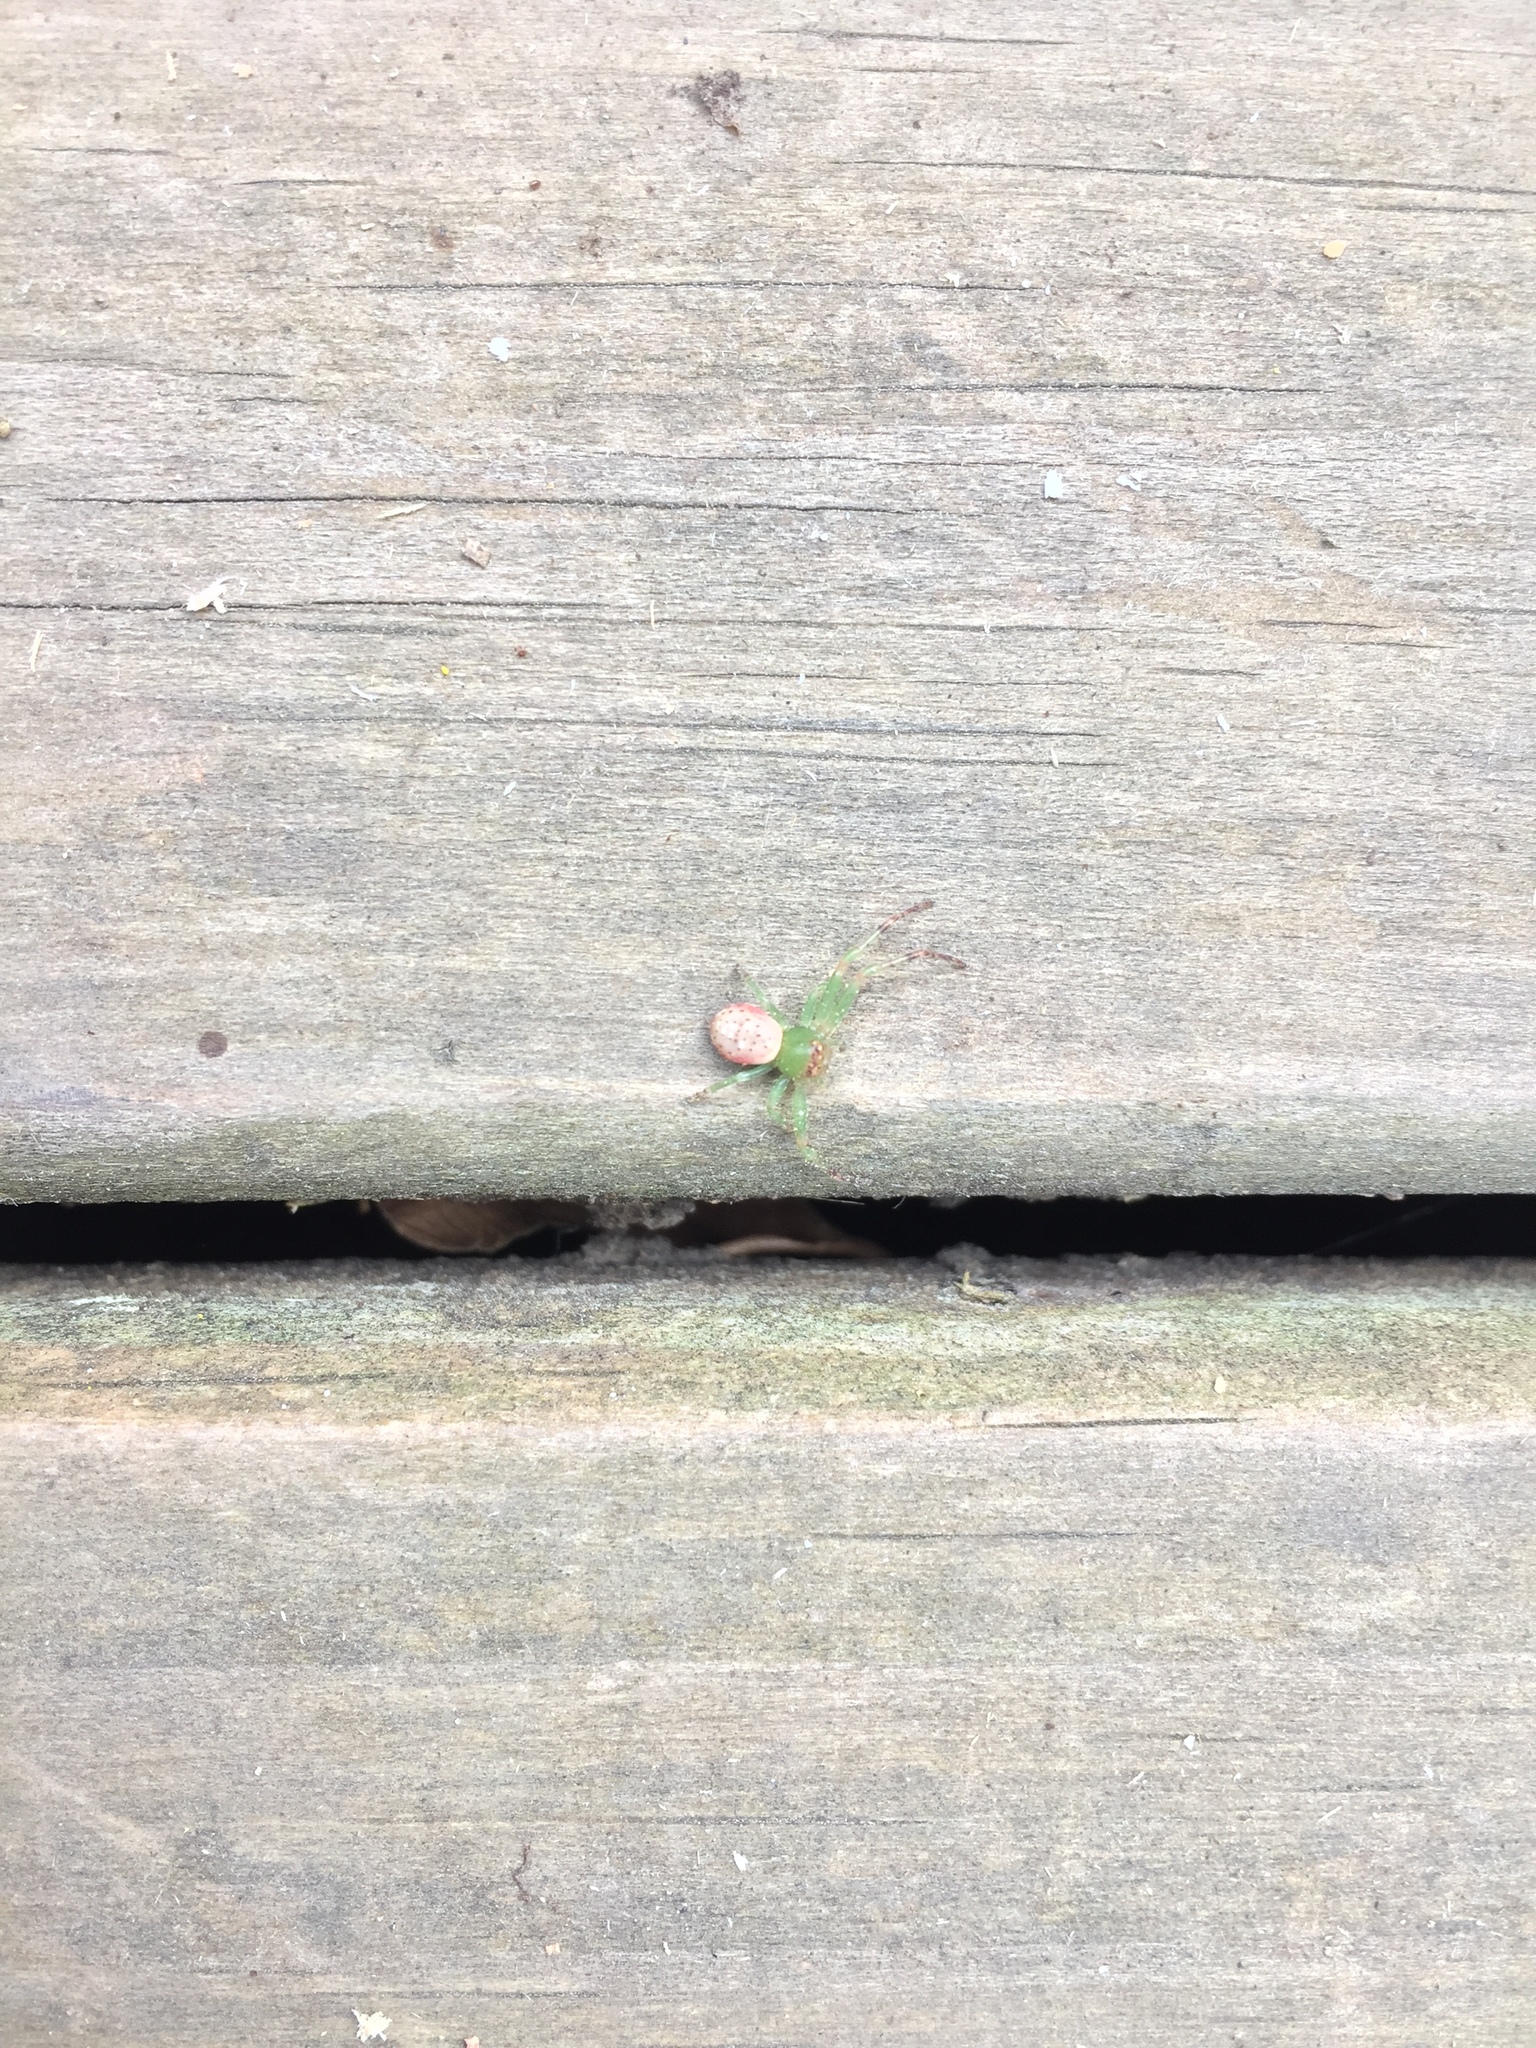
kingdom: Animalia
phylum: Arthropoda
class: Arachnida
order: Araneae
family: Thomisidae
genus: Diaea
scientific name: Diaea ambara
